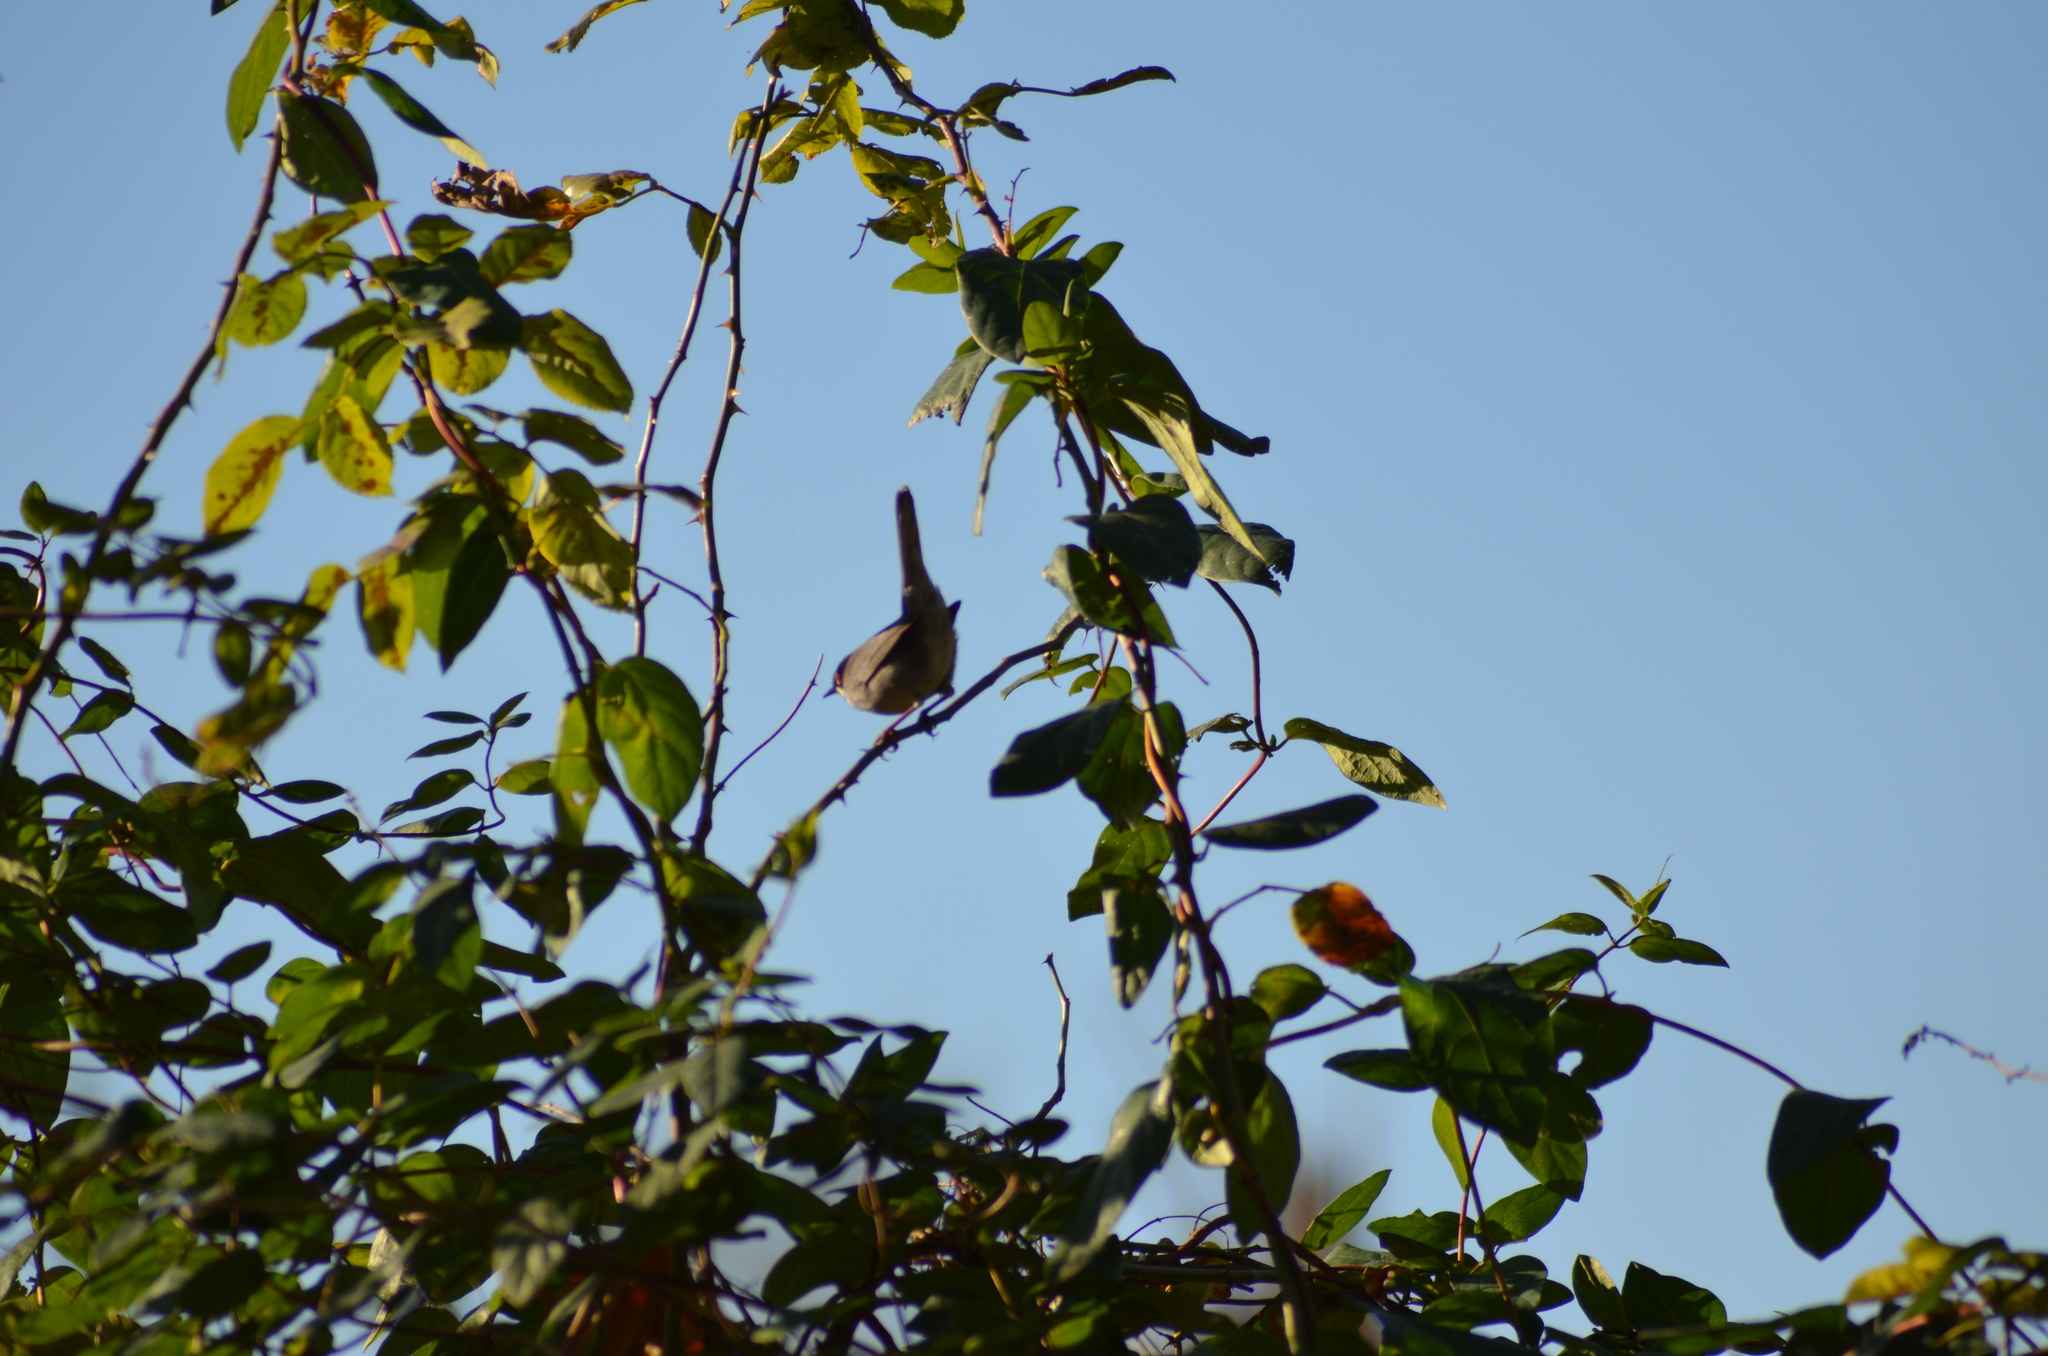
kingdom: Animalia
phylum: Chordata
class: Aves
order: Passeriformes
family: Sylviidae
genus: Curruca
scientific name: Curruca melanocephala
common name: Sardinian warbler
